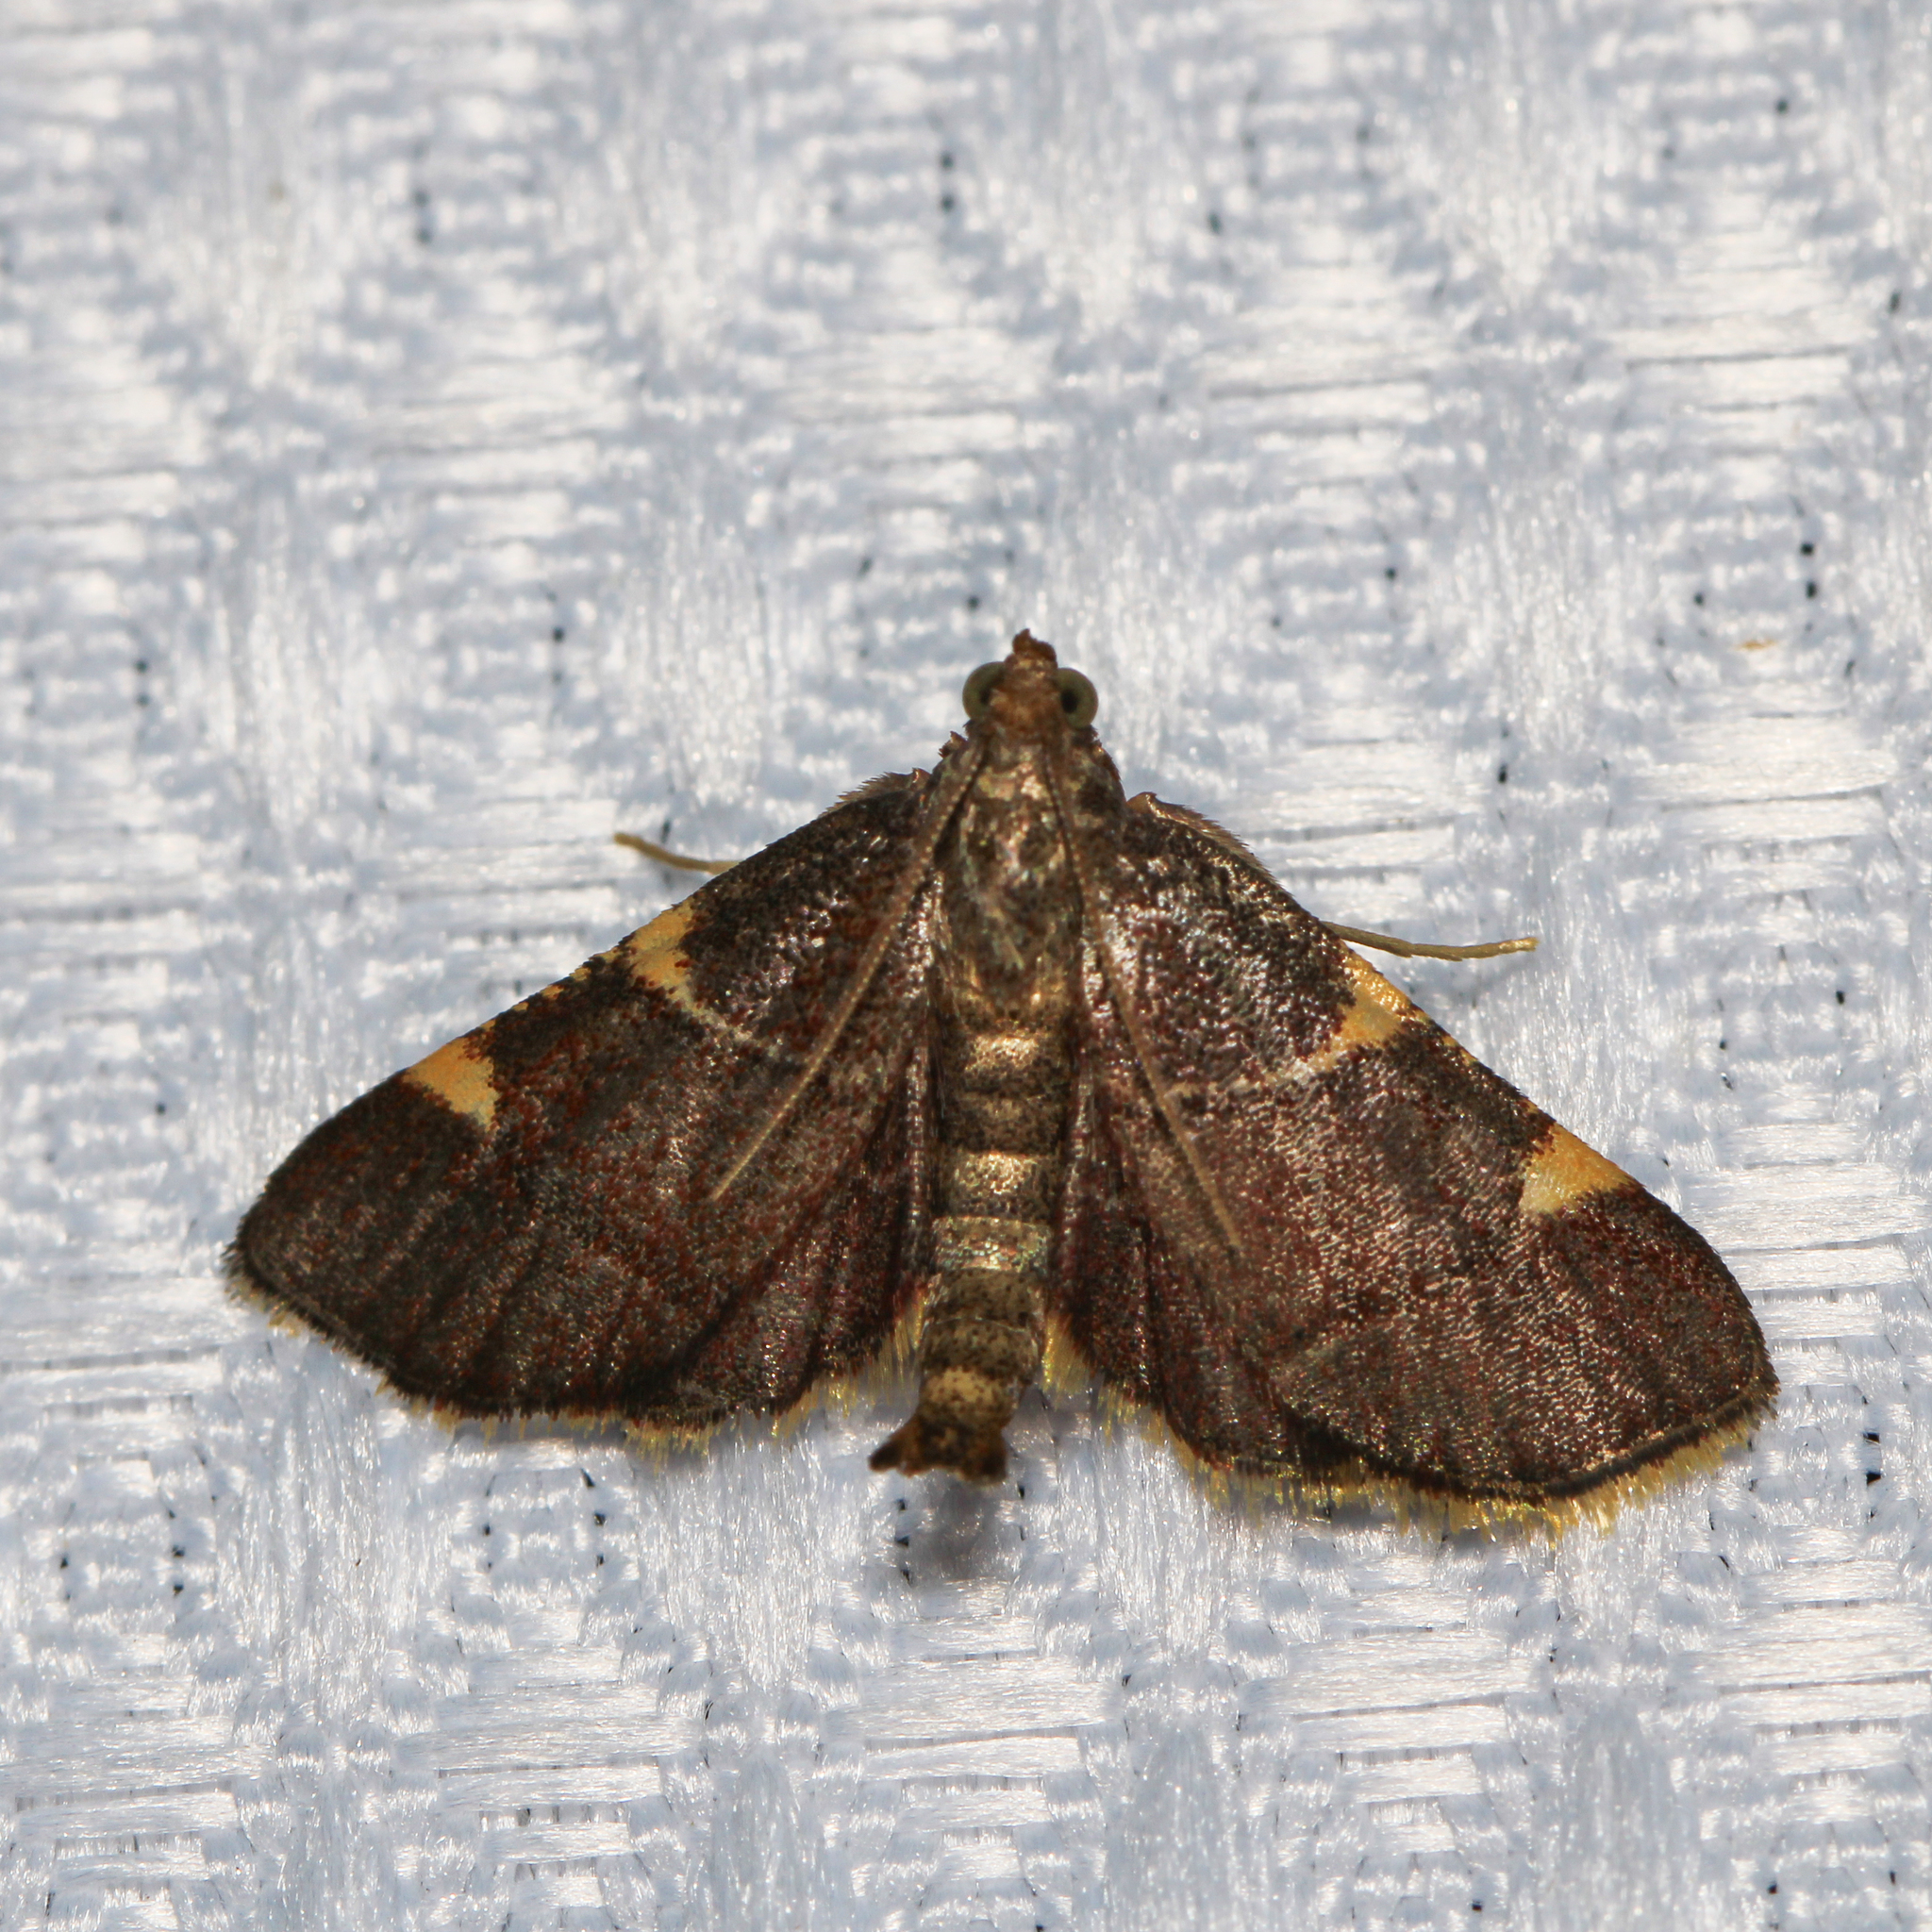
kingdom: Animalia
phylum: Arthropoda
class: Insecta
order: Lepidoptera
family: Pyralidae
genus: Hypsopygia
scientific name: Hypsopygia olinalis
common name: Yellow-fringed dolichomia moth
